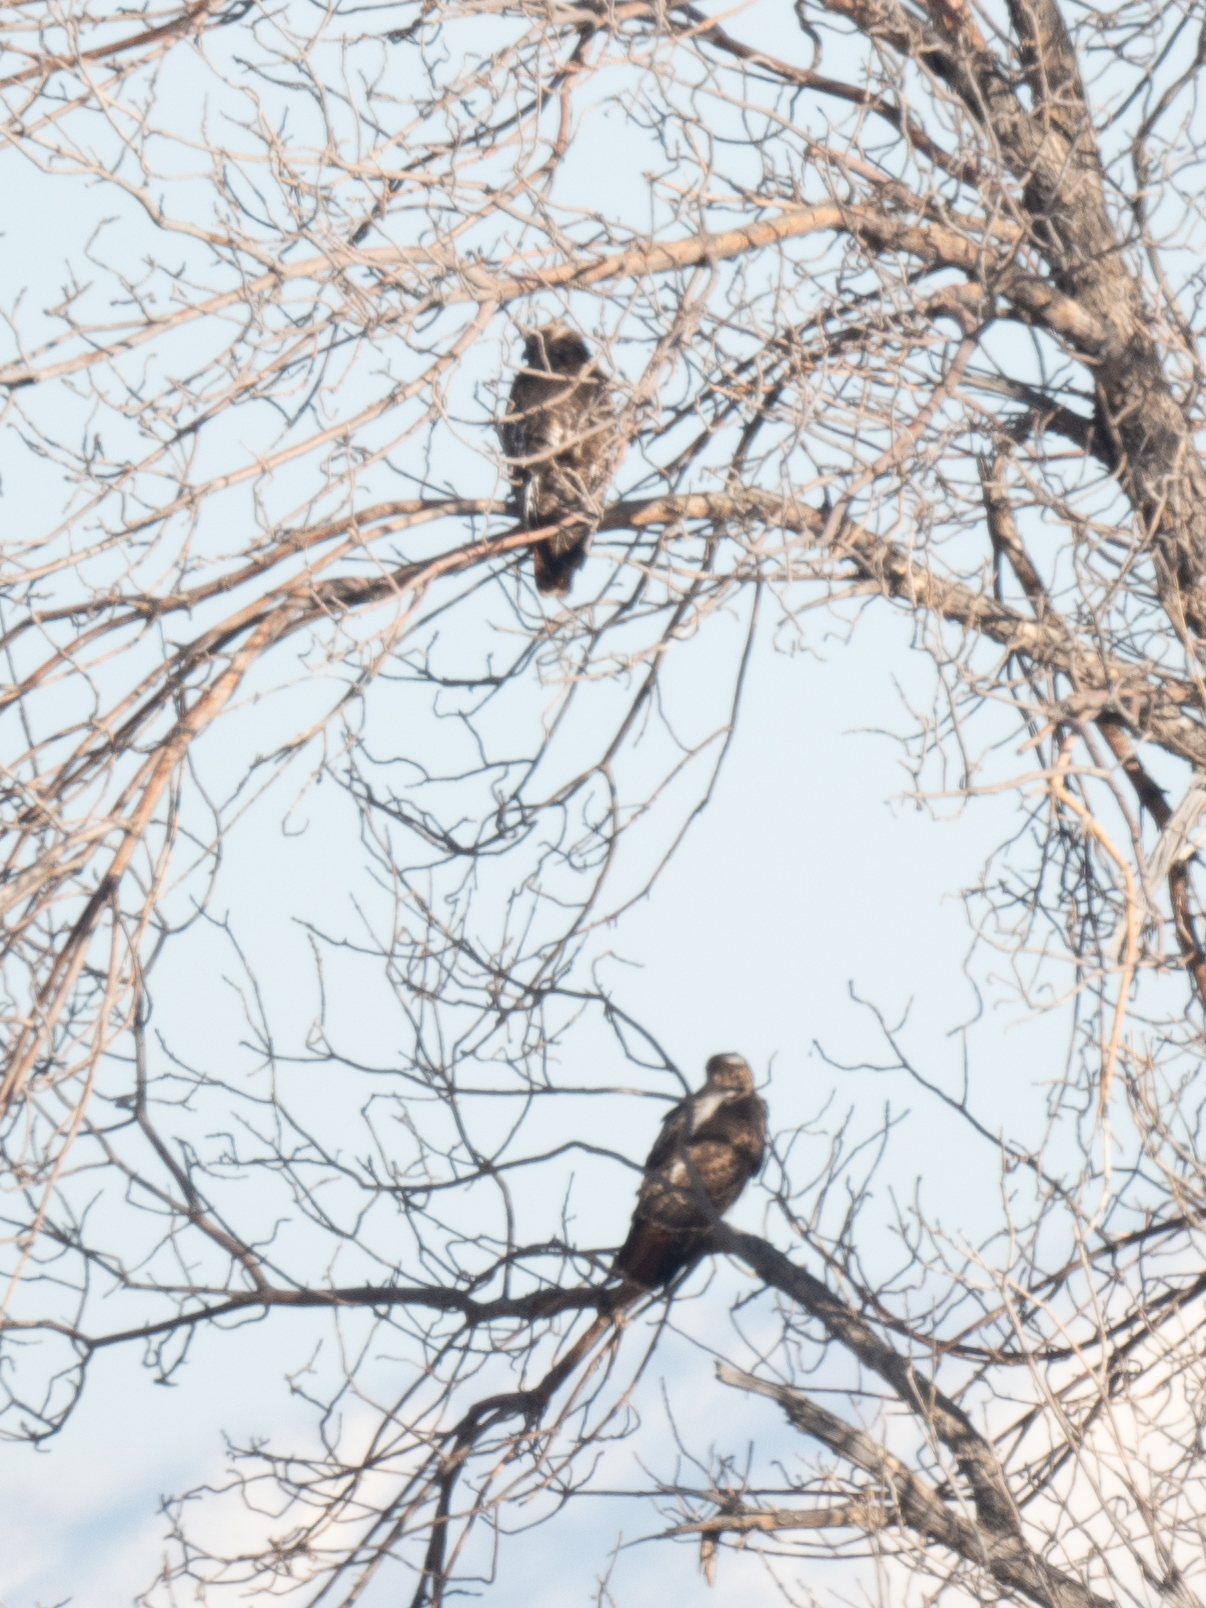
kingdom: Animalia
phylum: Chordata
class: Aves
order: Accipitriformes
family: Accipitridae
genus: Buteo
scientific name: Buteo jamaicensis
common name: Red-tailed hawk
